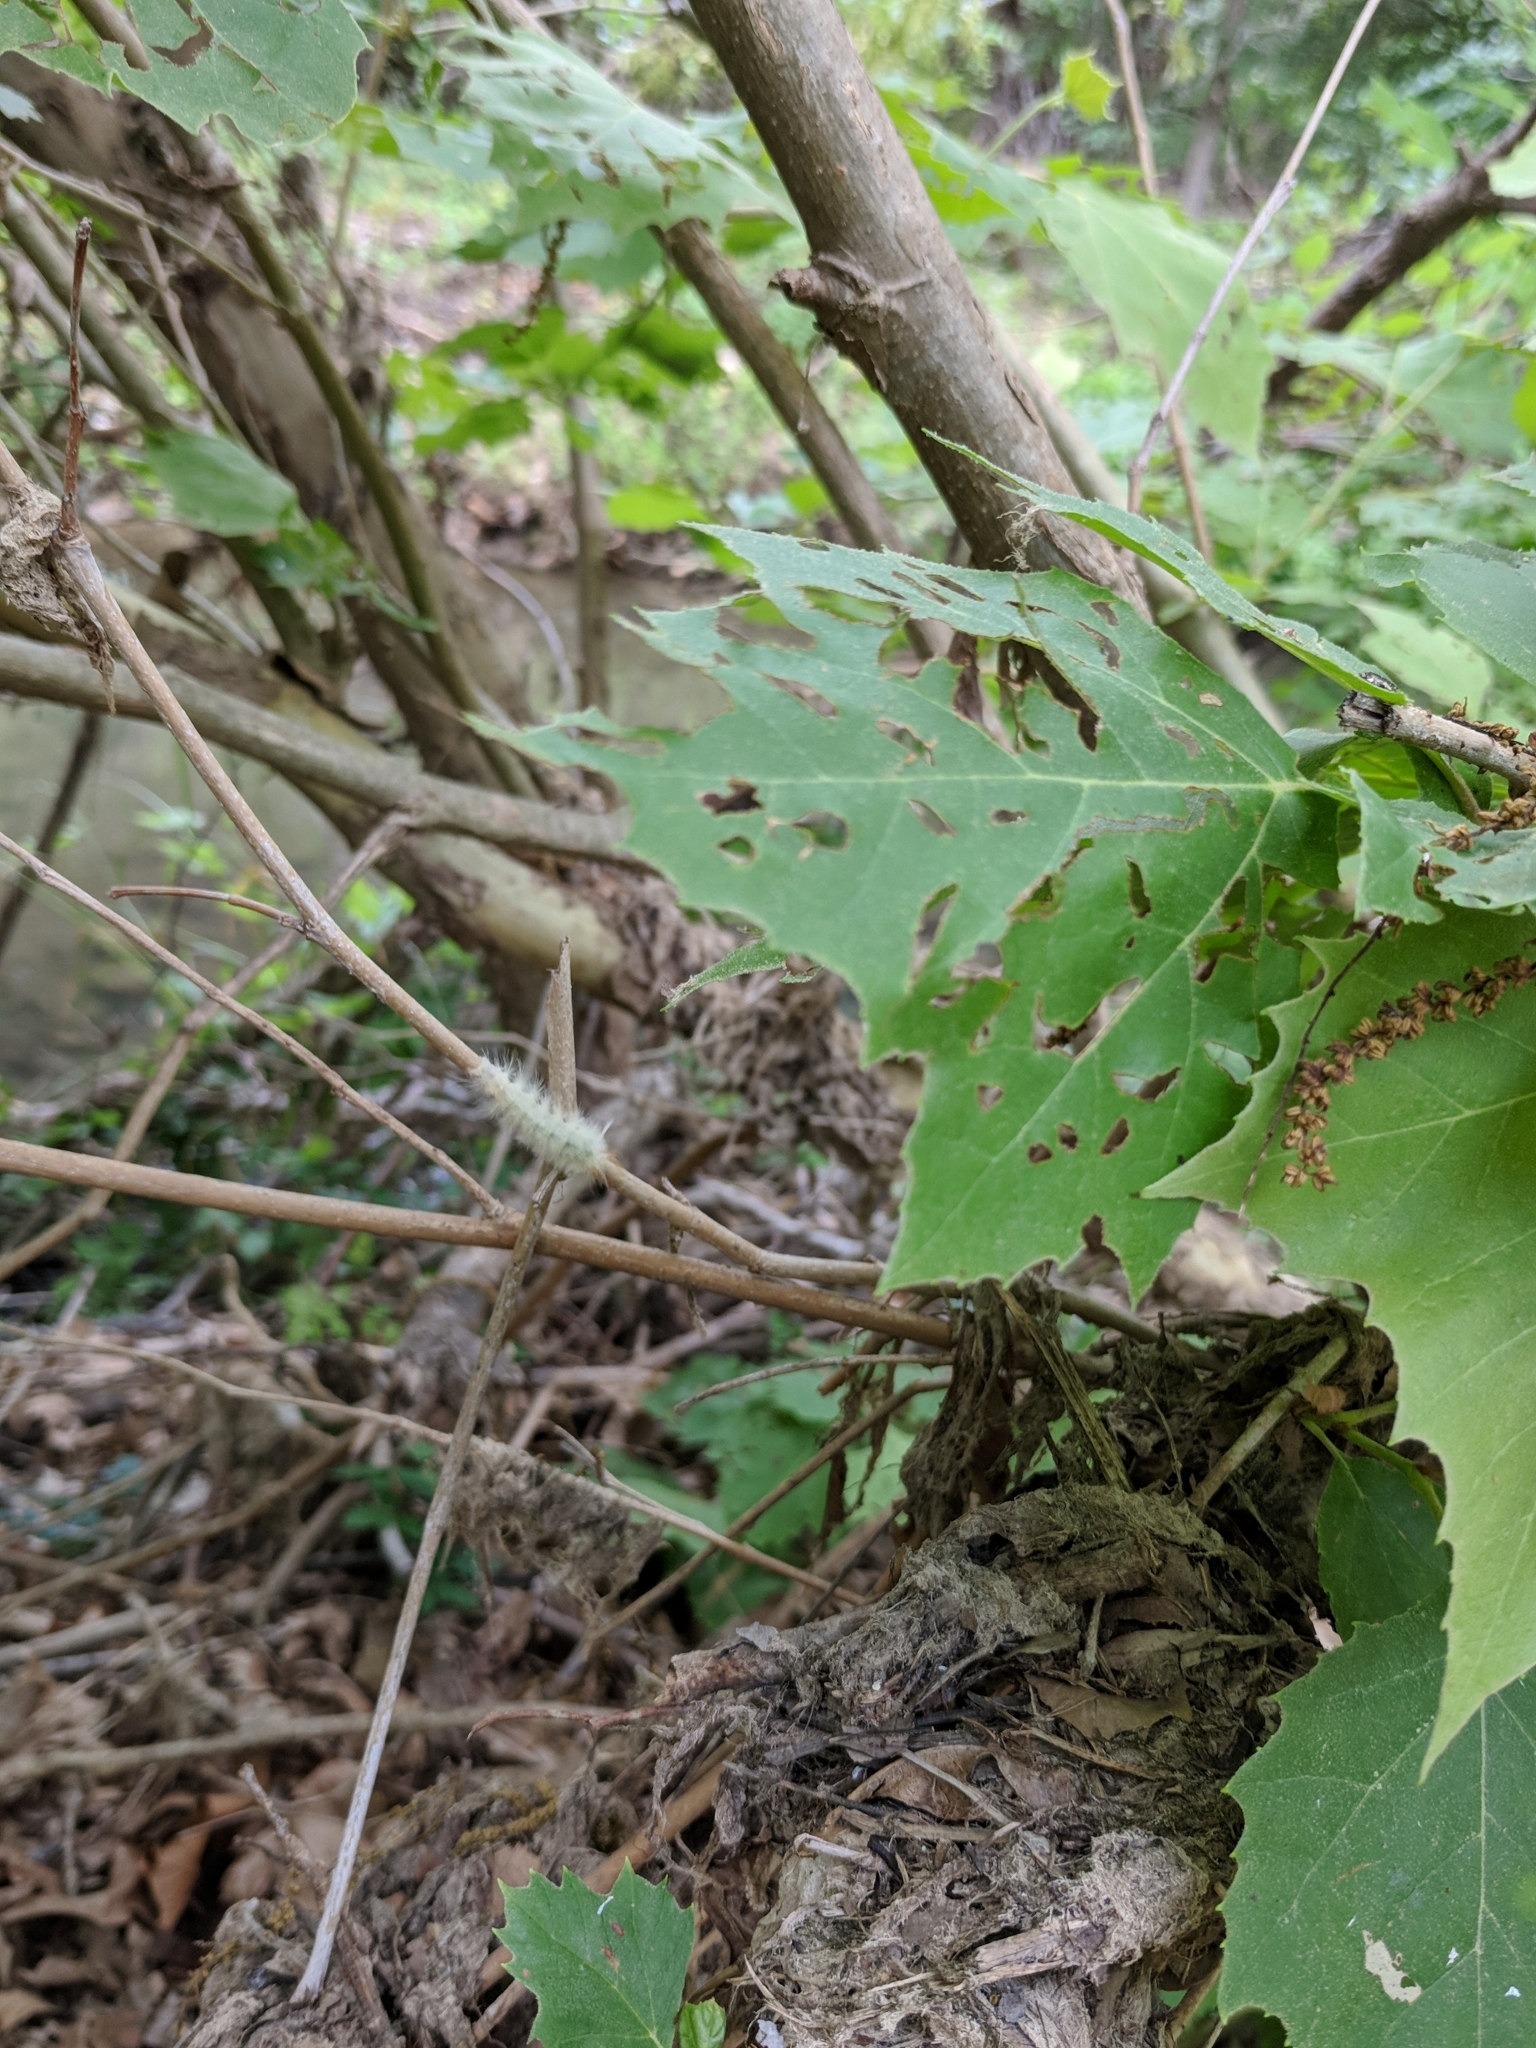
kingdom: Animalia
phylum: Arthropoda
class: Insecta
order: Lepidoptera
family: Erebidae
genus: Halysidota
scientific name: Halysidota harrisii
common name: Sycamore tussock moth
